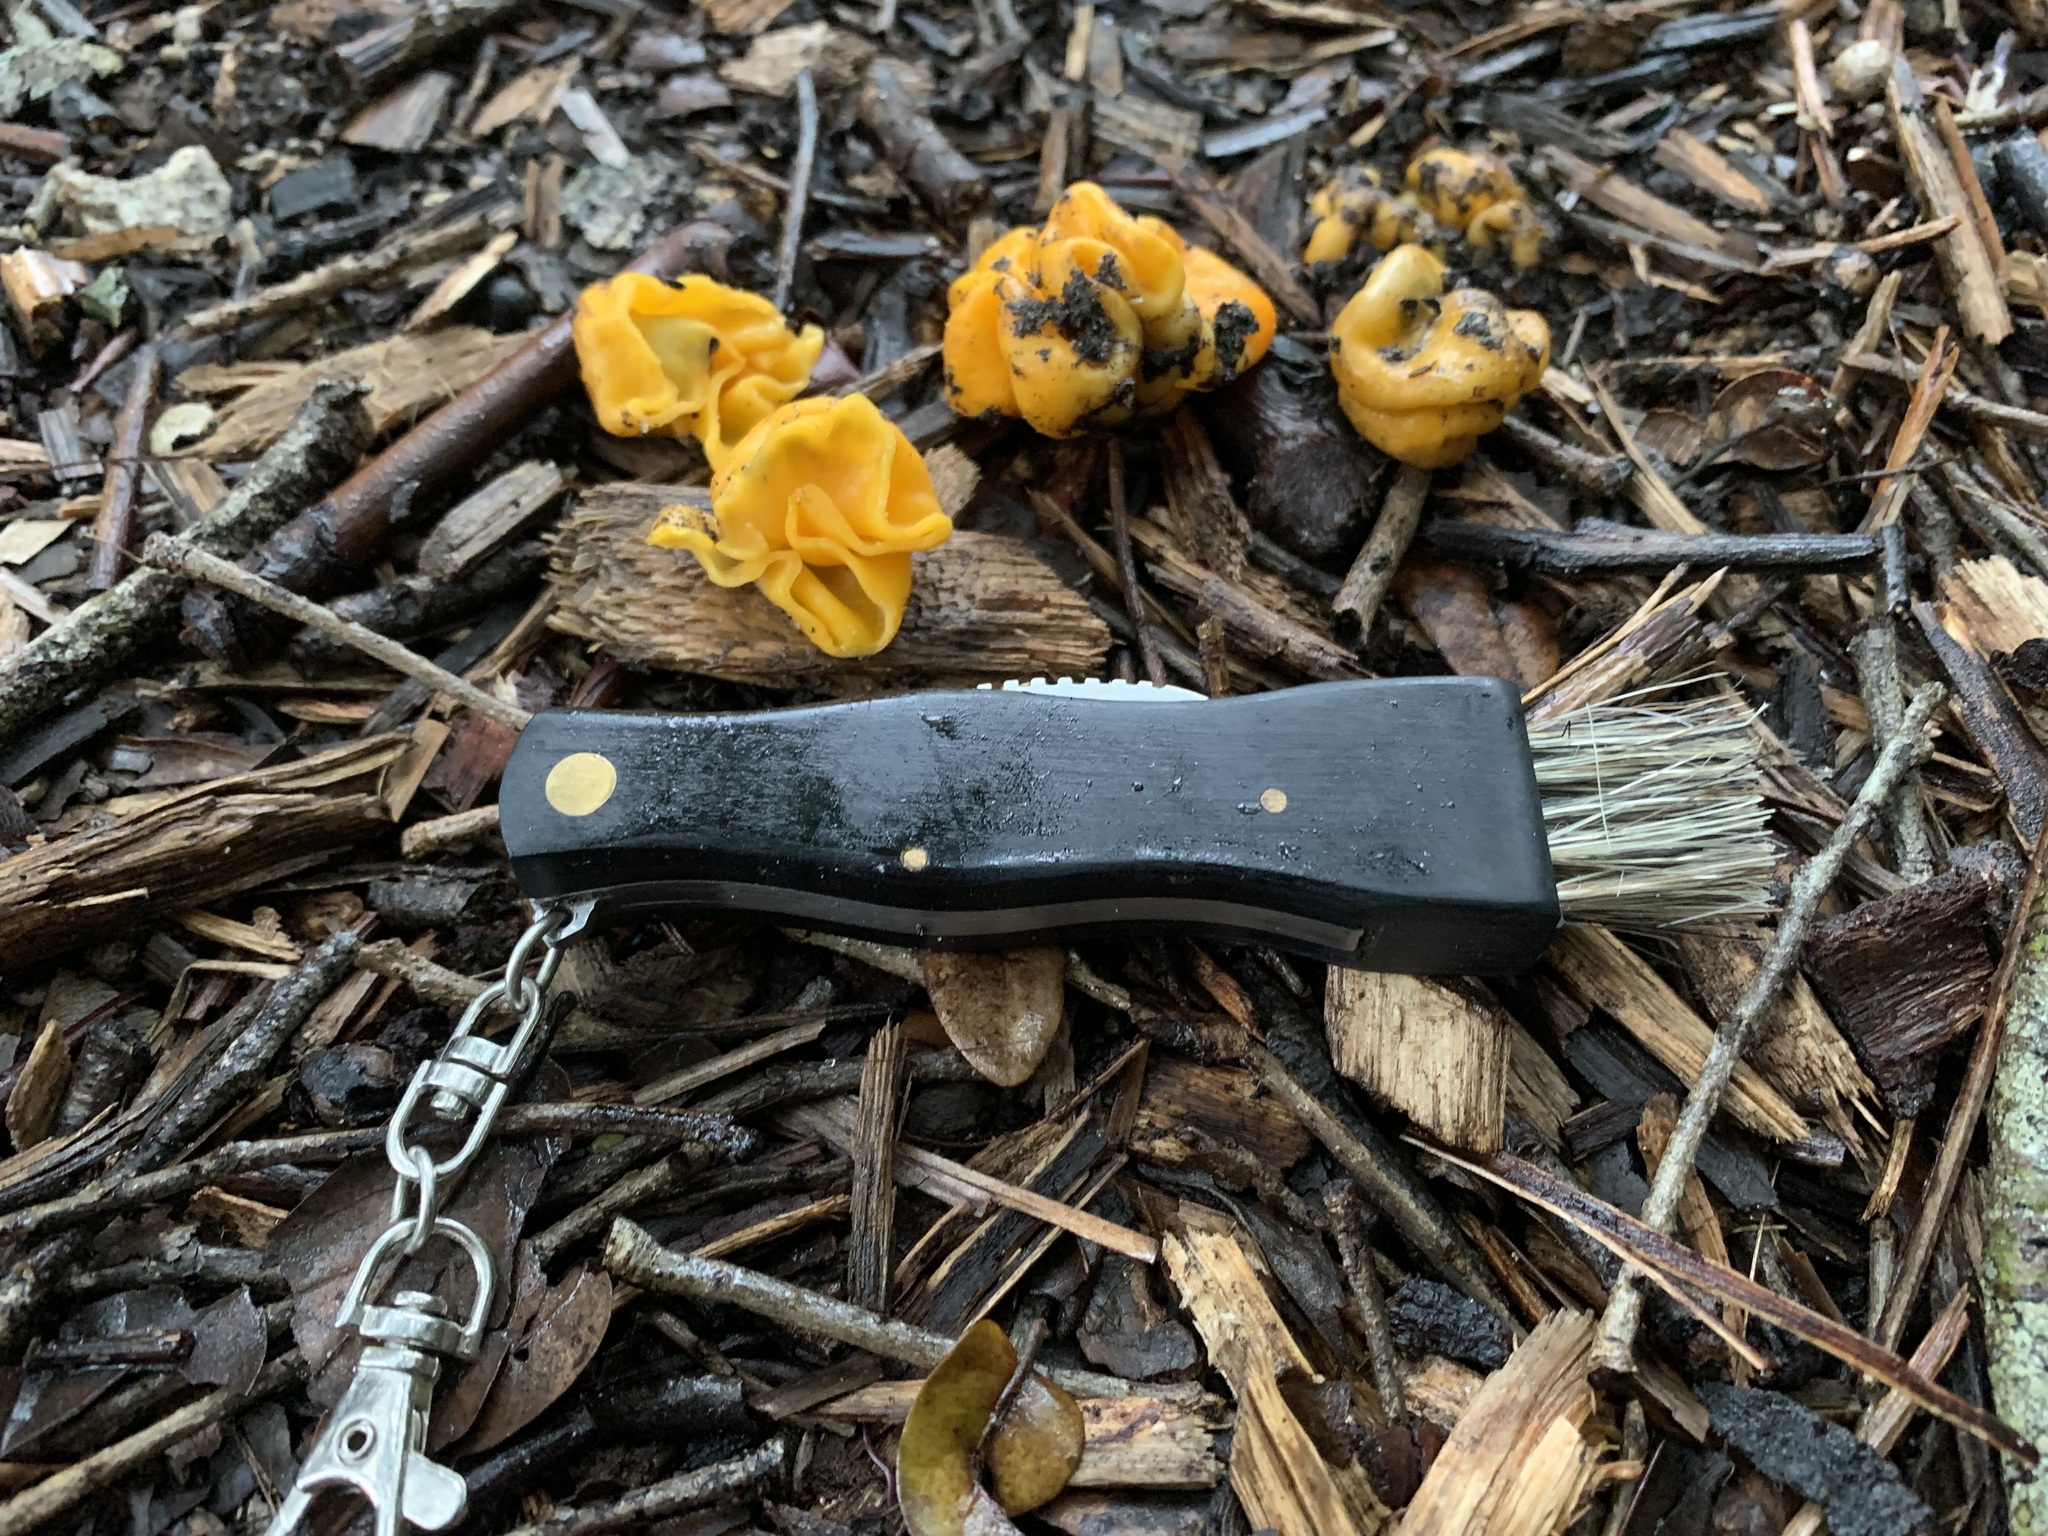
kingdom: Fungi
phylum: Ascomycota
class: Pezizomycetes
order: Pezizales
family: Glaziellaceae
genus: Glaziella
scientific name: Glaziella aurantiaca
